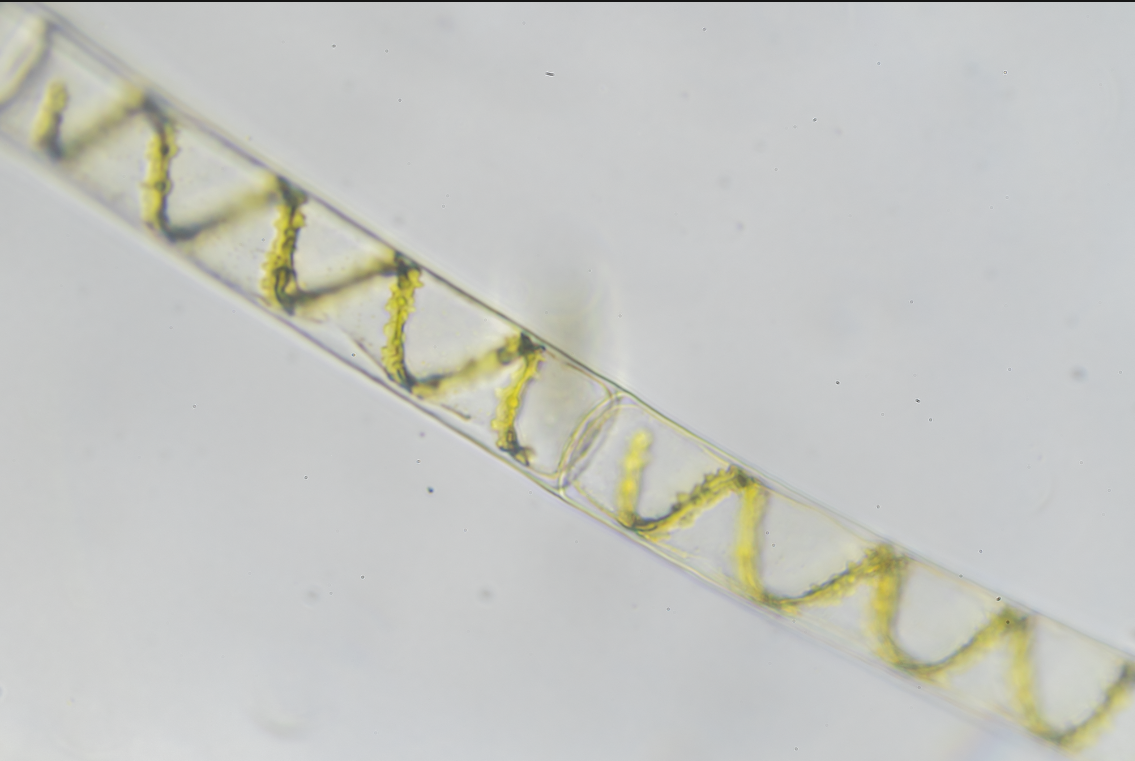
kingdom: Plantae
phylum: Charophyta
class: Zygnematophyceae
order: Zygnematales
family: Zygnemataceae
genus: Spirogyra
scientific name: Spirogyra
